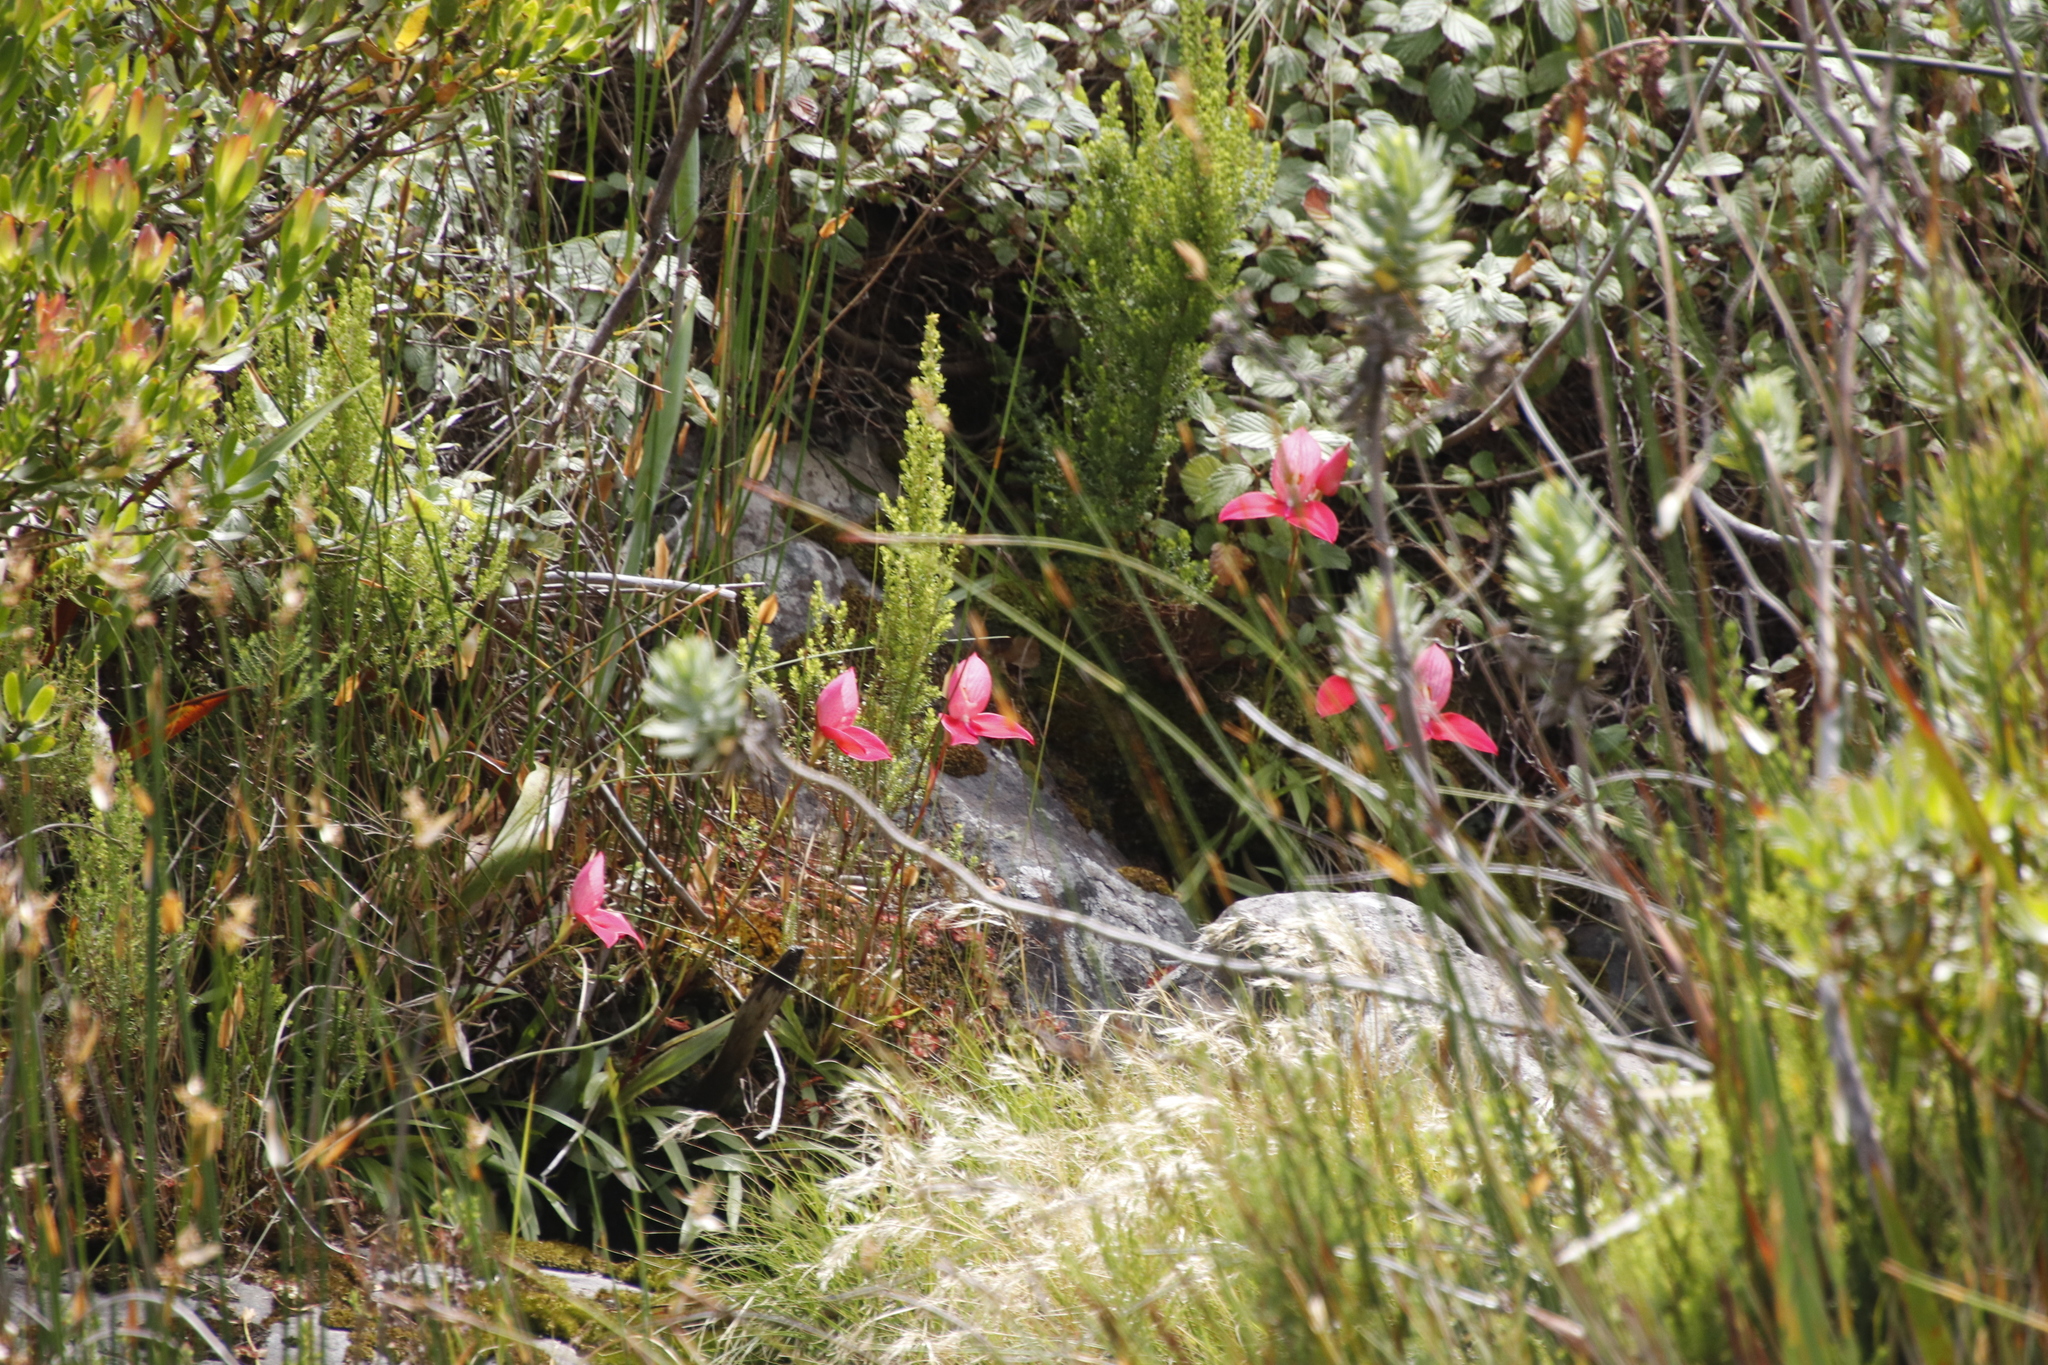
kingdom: Plantae
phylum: Tracheophyta
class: Liliopsida
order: Asparagales
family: Orchidaceae
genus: Disa
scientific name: Disa uniflora
